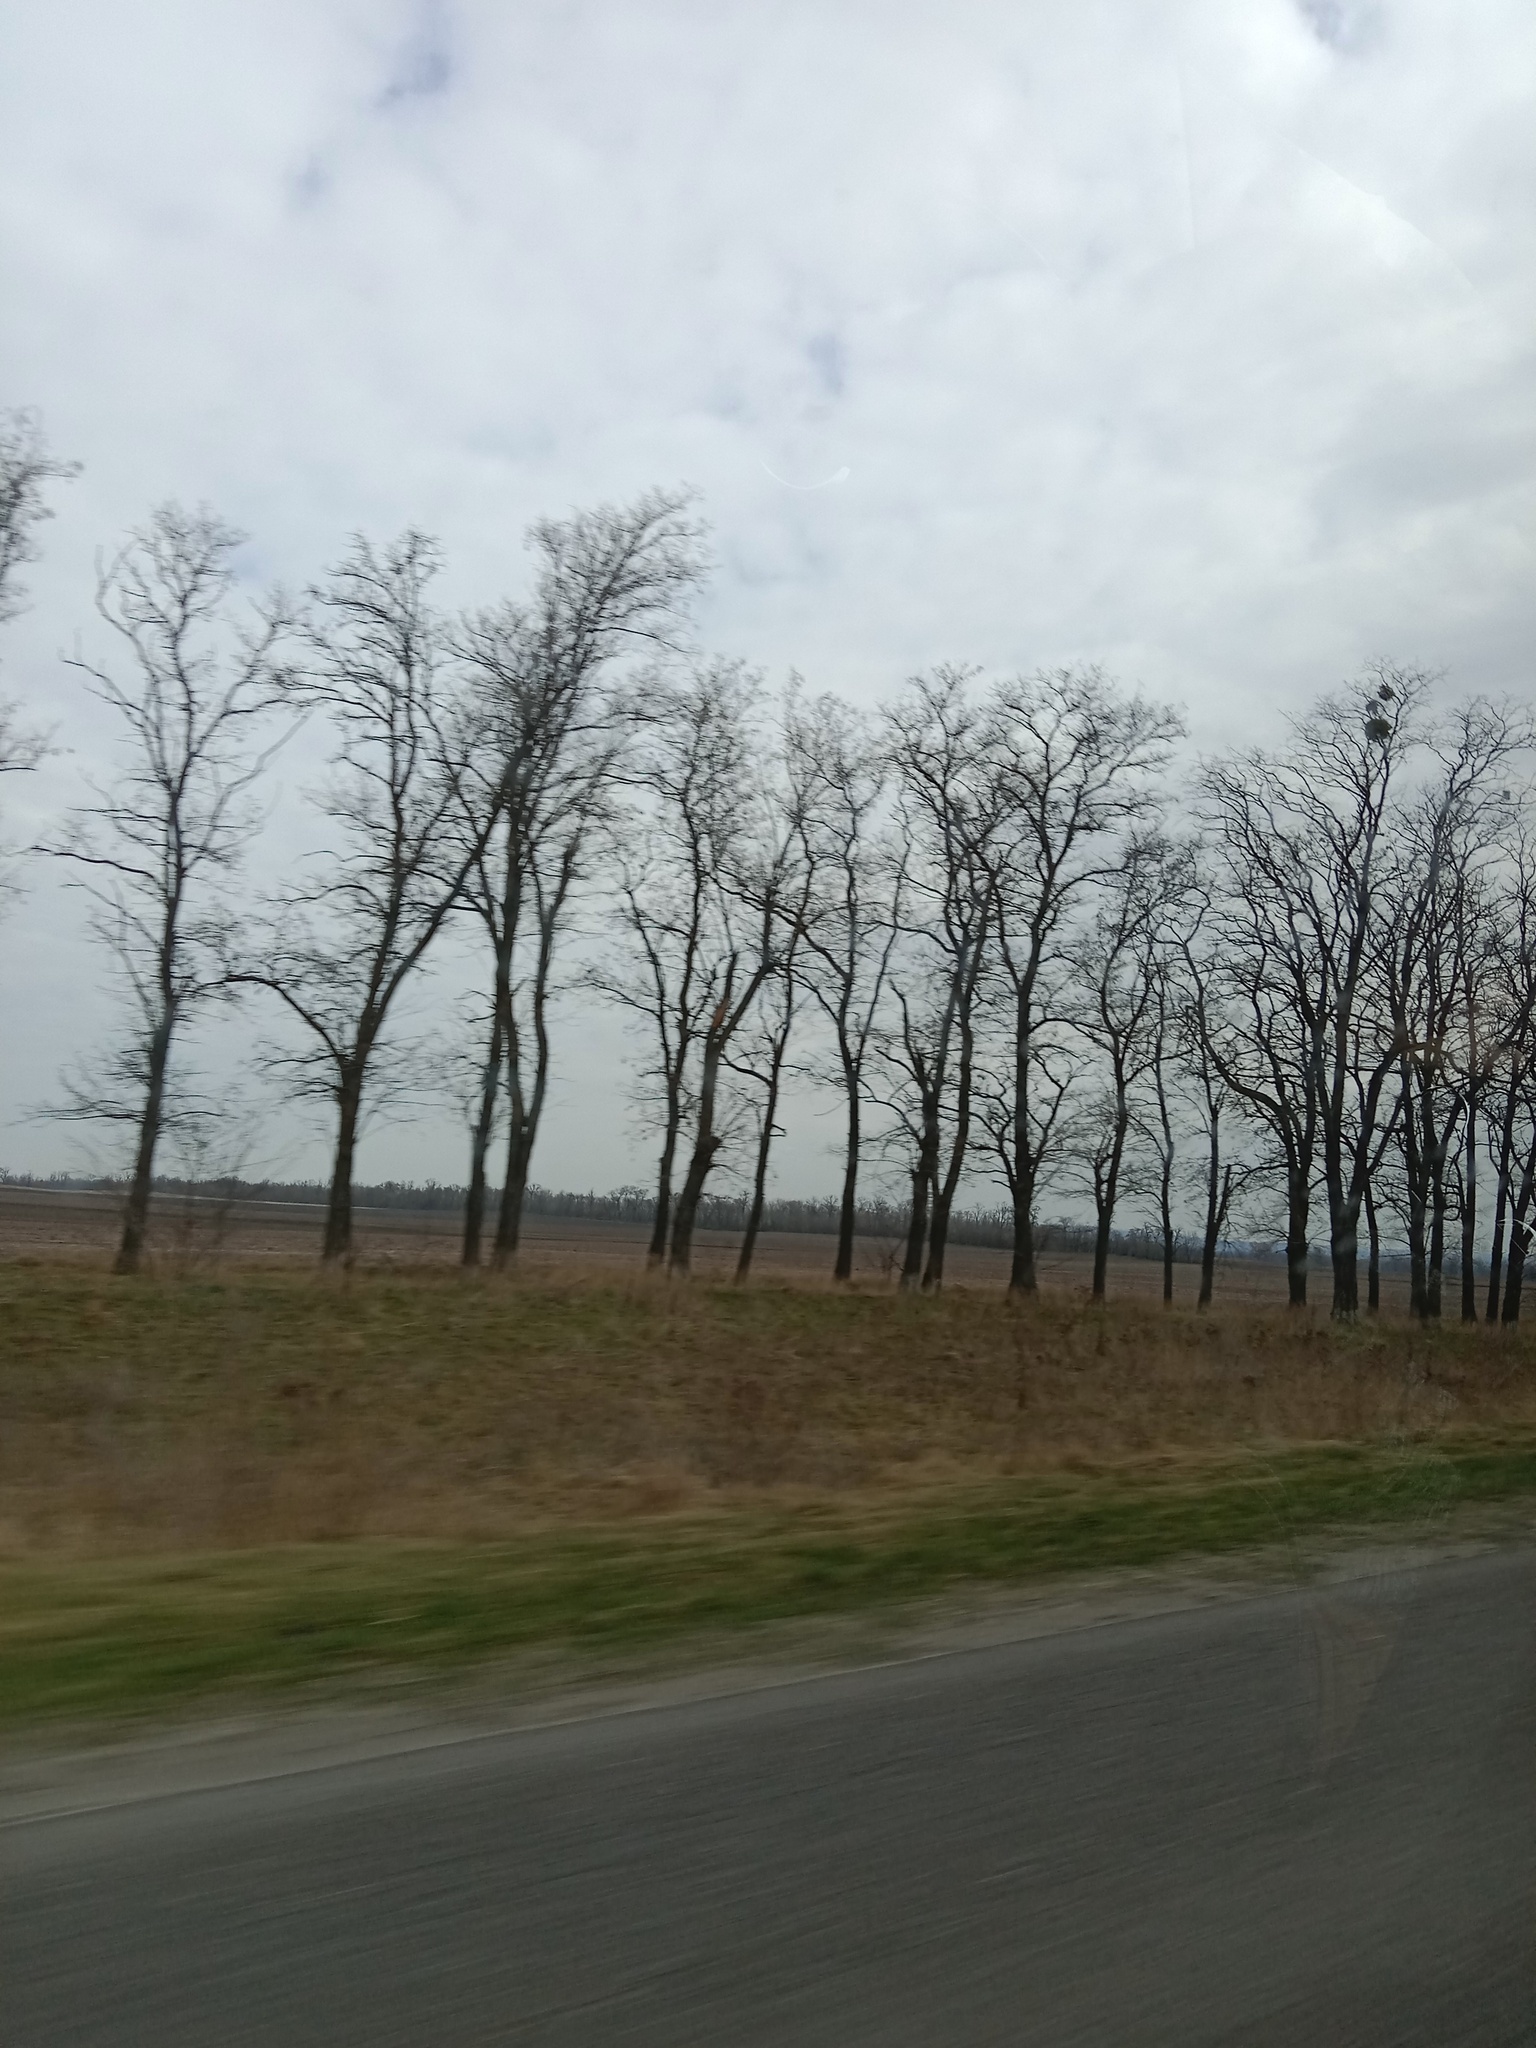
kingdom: Plantae
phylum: Tracheophyta
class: Magnoliopsida
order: Santalales
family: Viscaceae
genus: Viscum
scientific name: Viscum album
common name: Mistletoe
